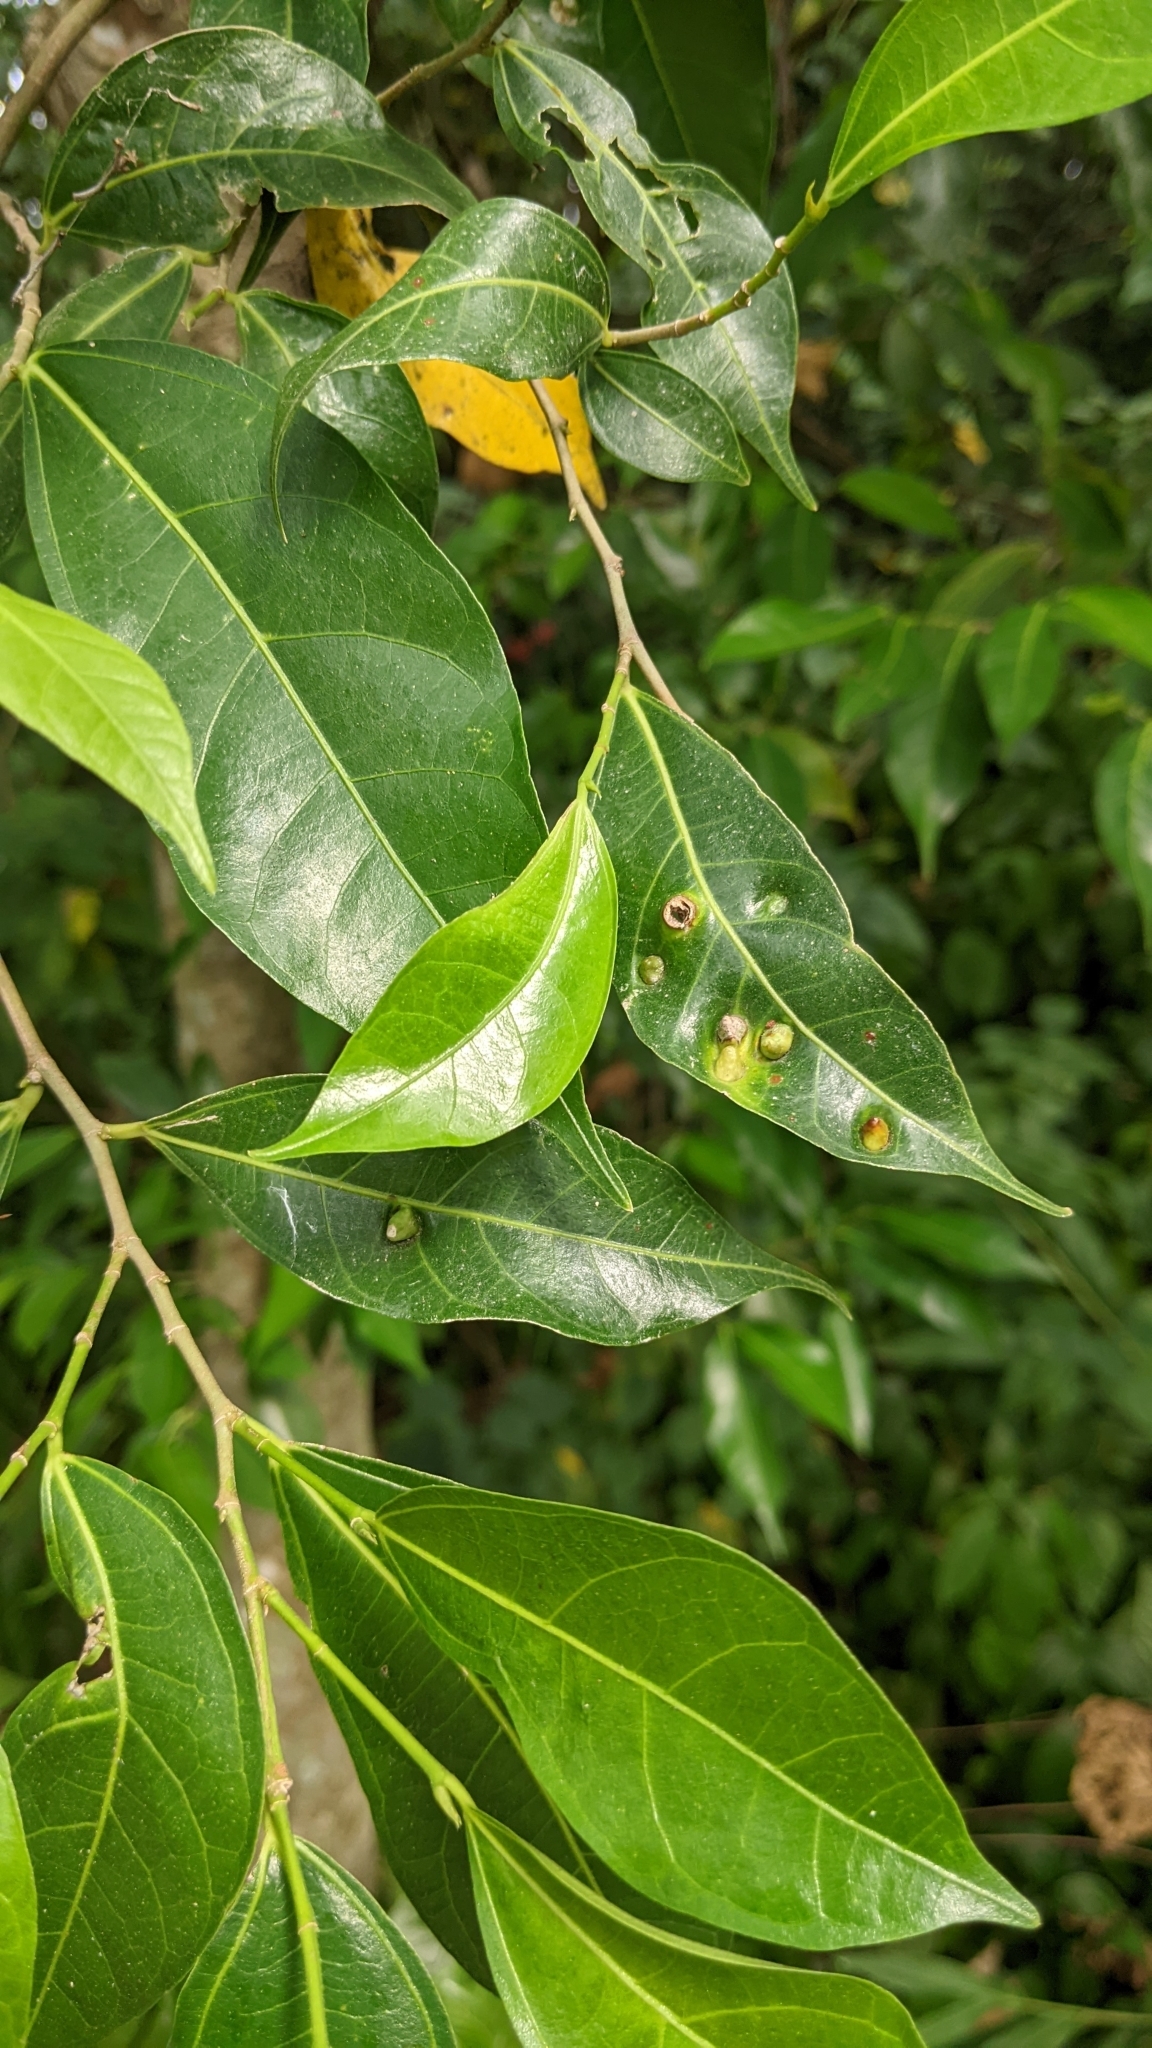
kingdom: Plantae
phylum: Tracheophyta
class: Magnoliopsida
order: Rosales
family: Moraceae
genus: Ficus
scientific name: Ficus ampelos
